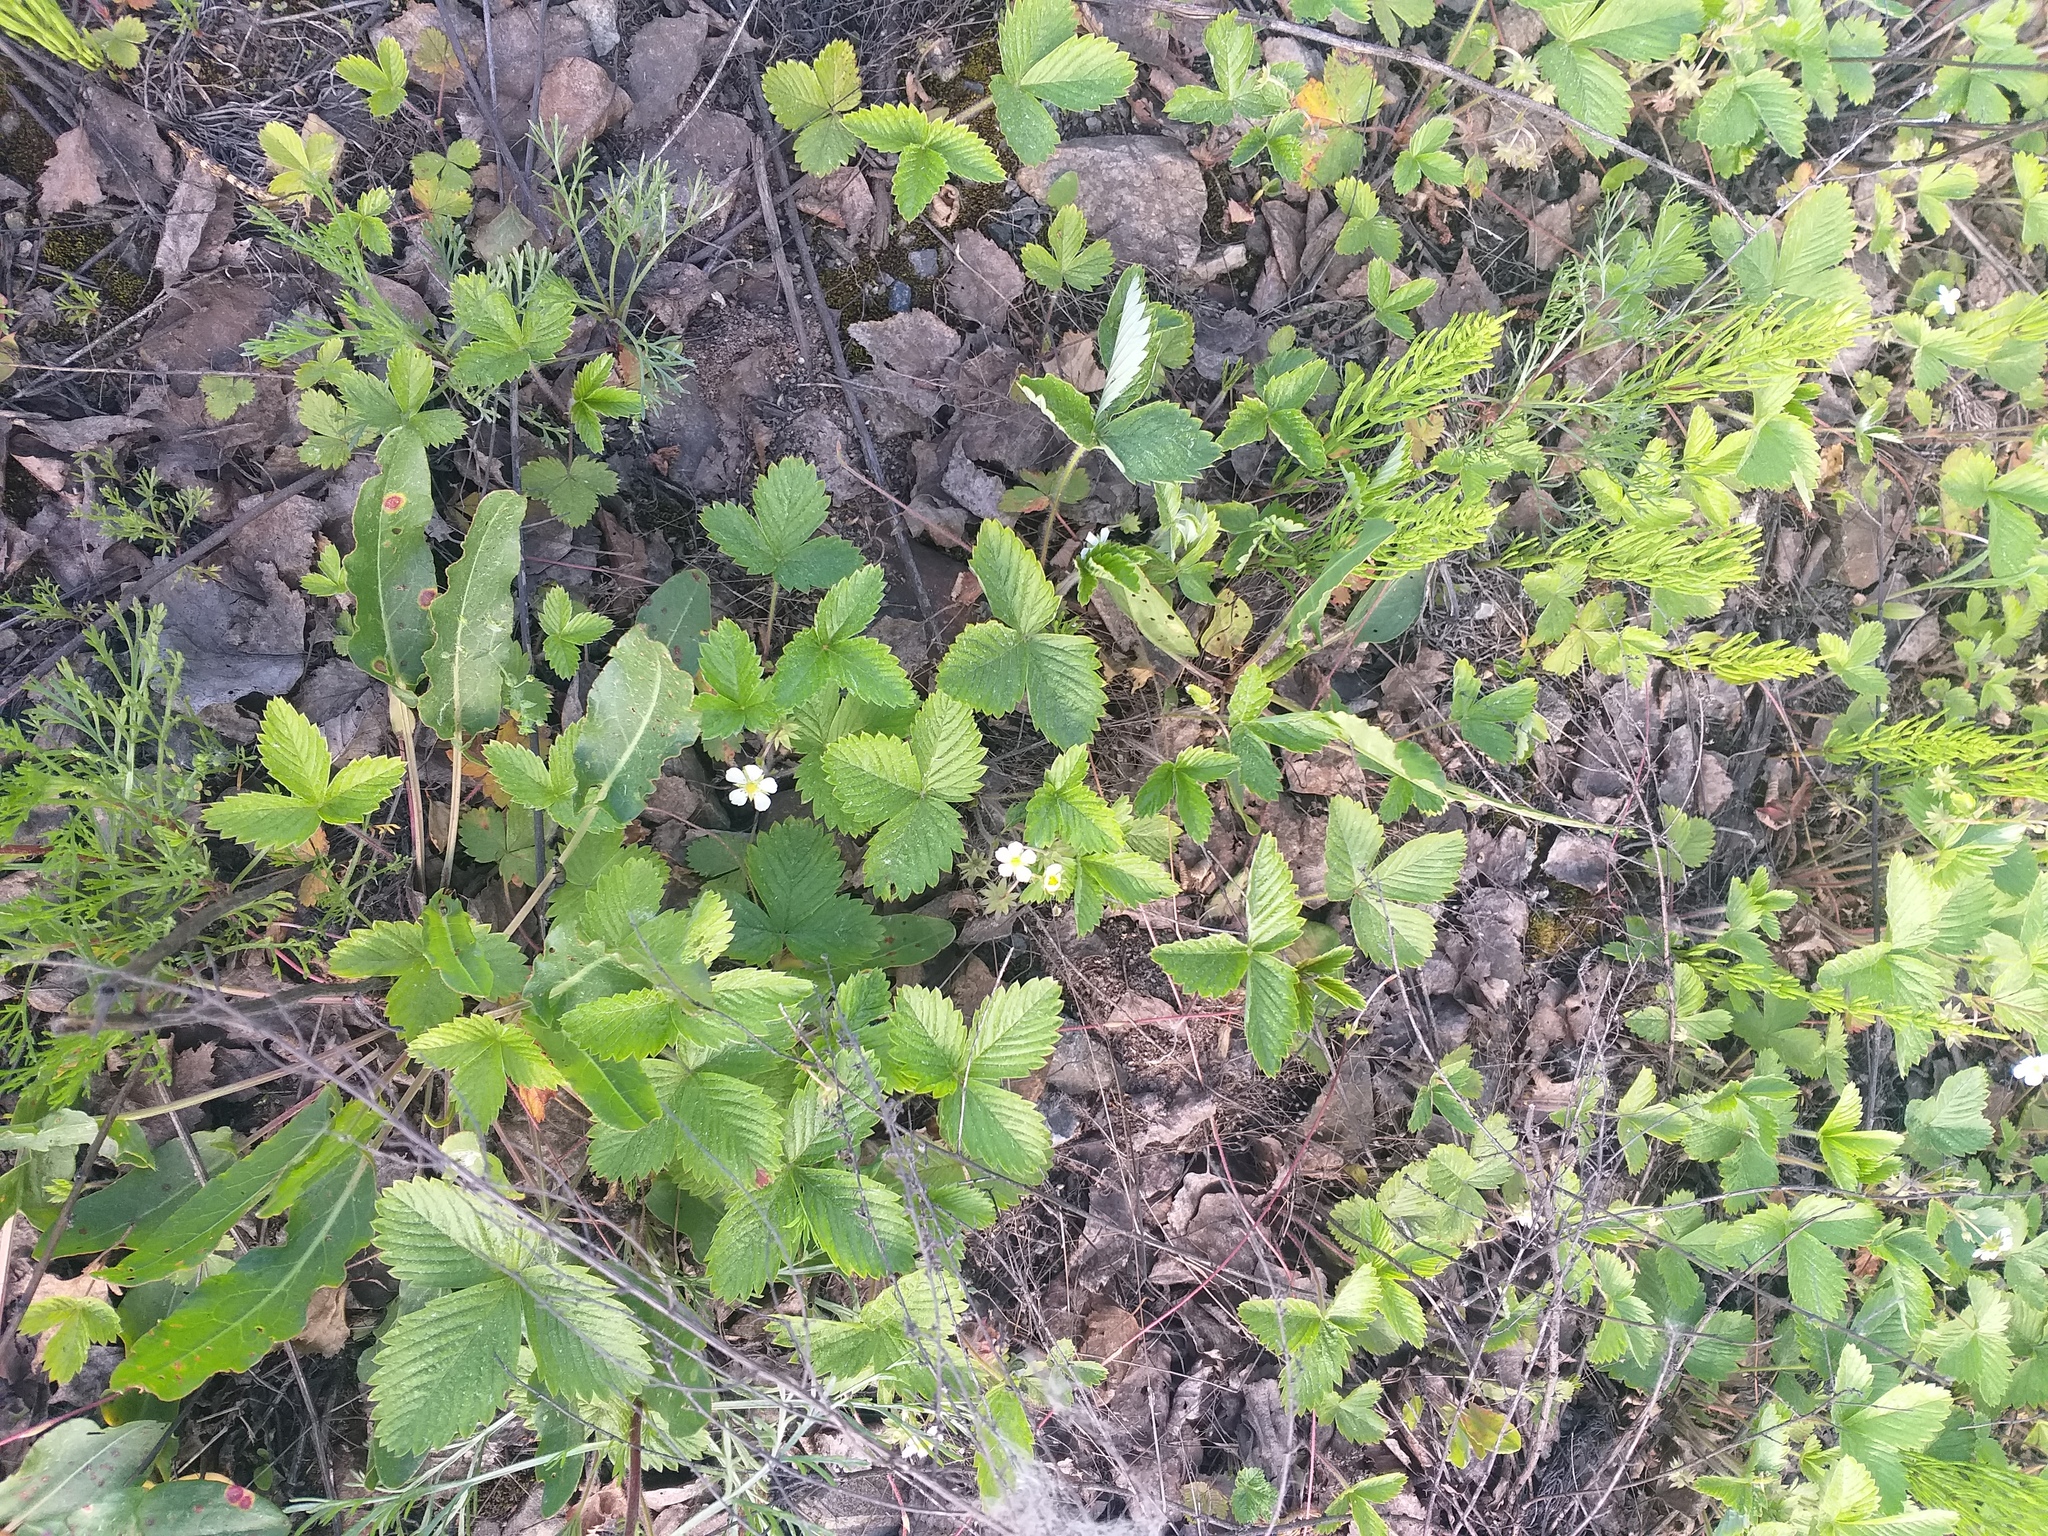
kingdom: Plantae
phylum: Tracheophyta
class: Magnoliopsida
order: Rosales
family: Rosaceae
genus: Fragaria
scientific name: Fragaria vesca
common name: Wild strawberry
